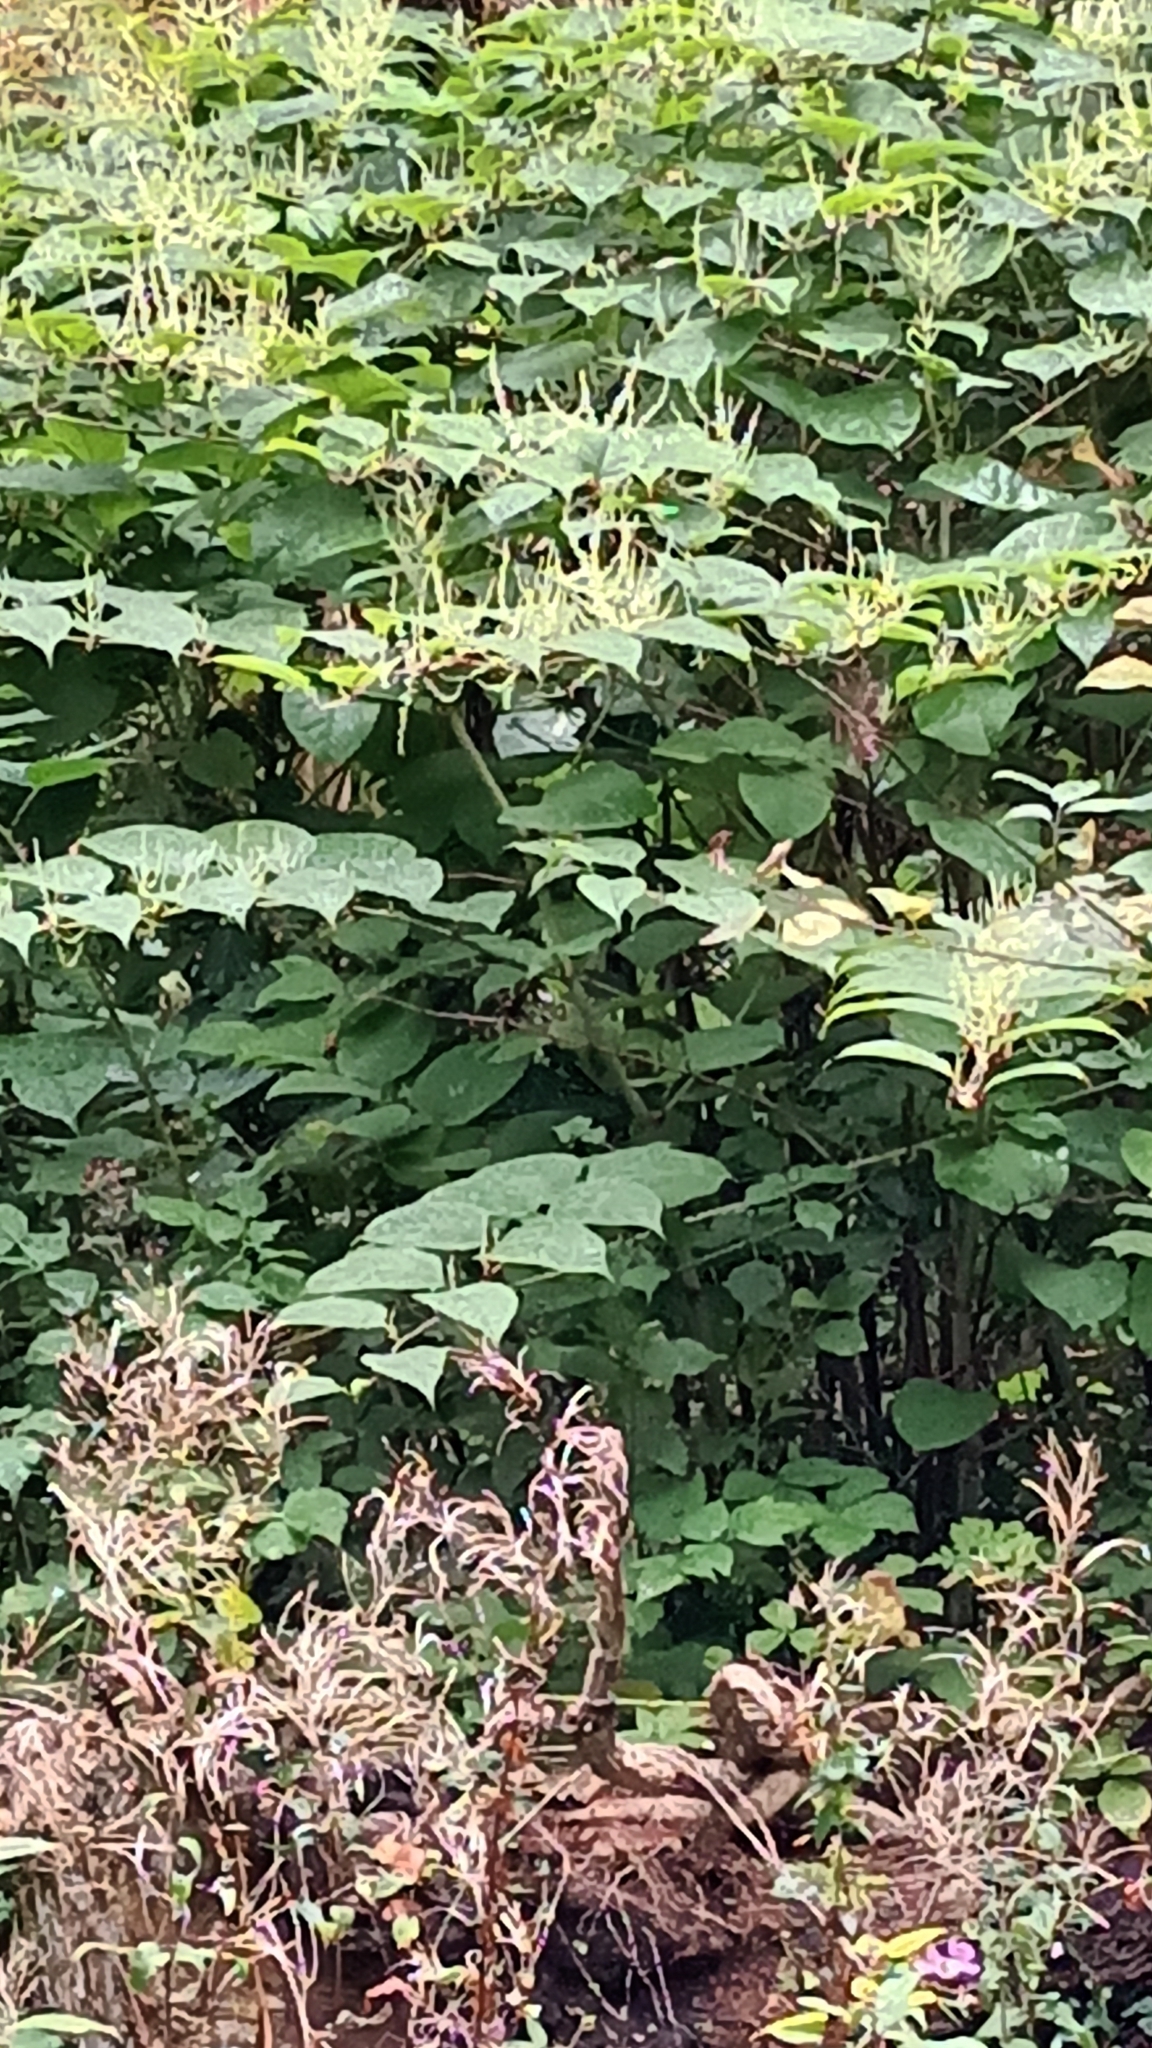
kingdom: Plantae
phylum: Tracheophyta
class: Magnoliopsida
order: Caryophyllales
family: Polygonaceae
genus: Reynoutria
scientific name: Reynoutria japonica
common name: Japanese knotweed
